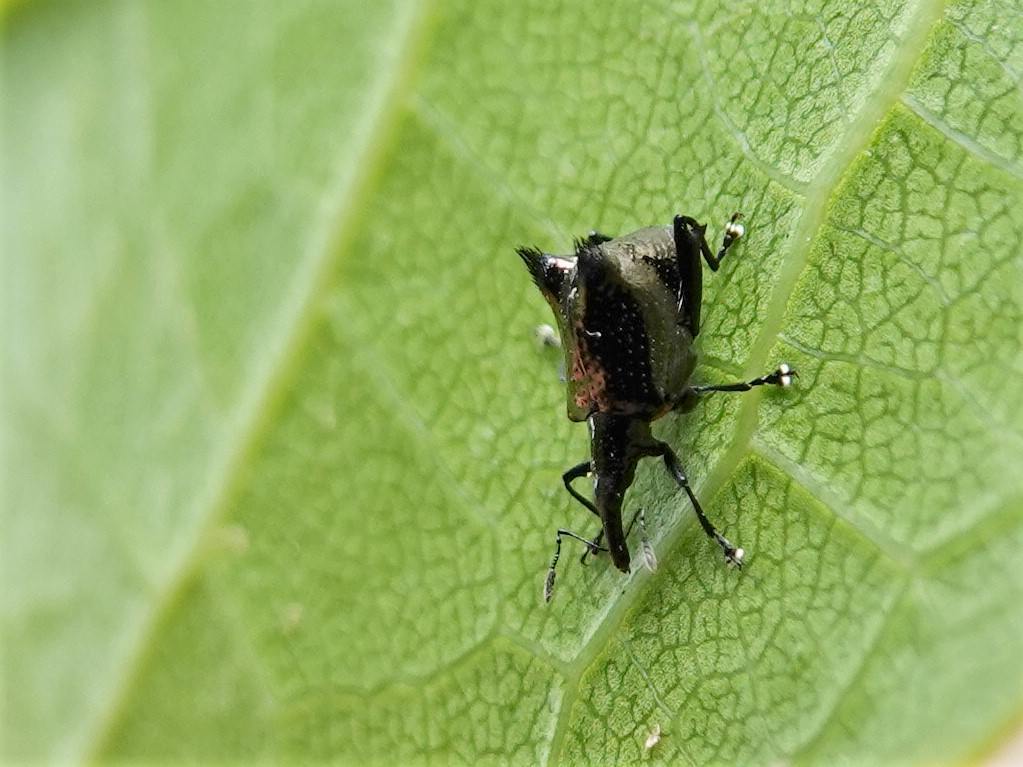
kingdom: Animalia
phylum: Arthropoda
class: Insecta
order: Coleoptera
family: Curculionidae
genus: Scolopterus
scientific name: Scolopterus penicillatus
